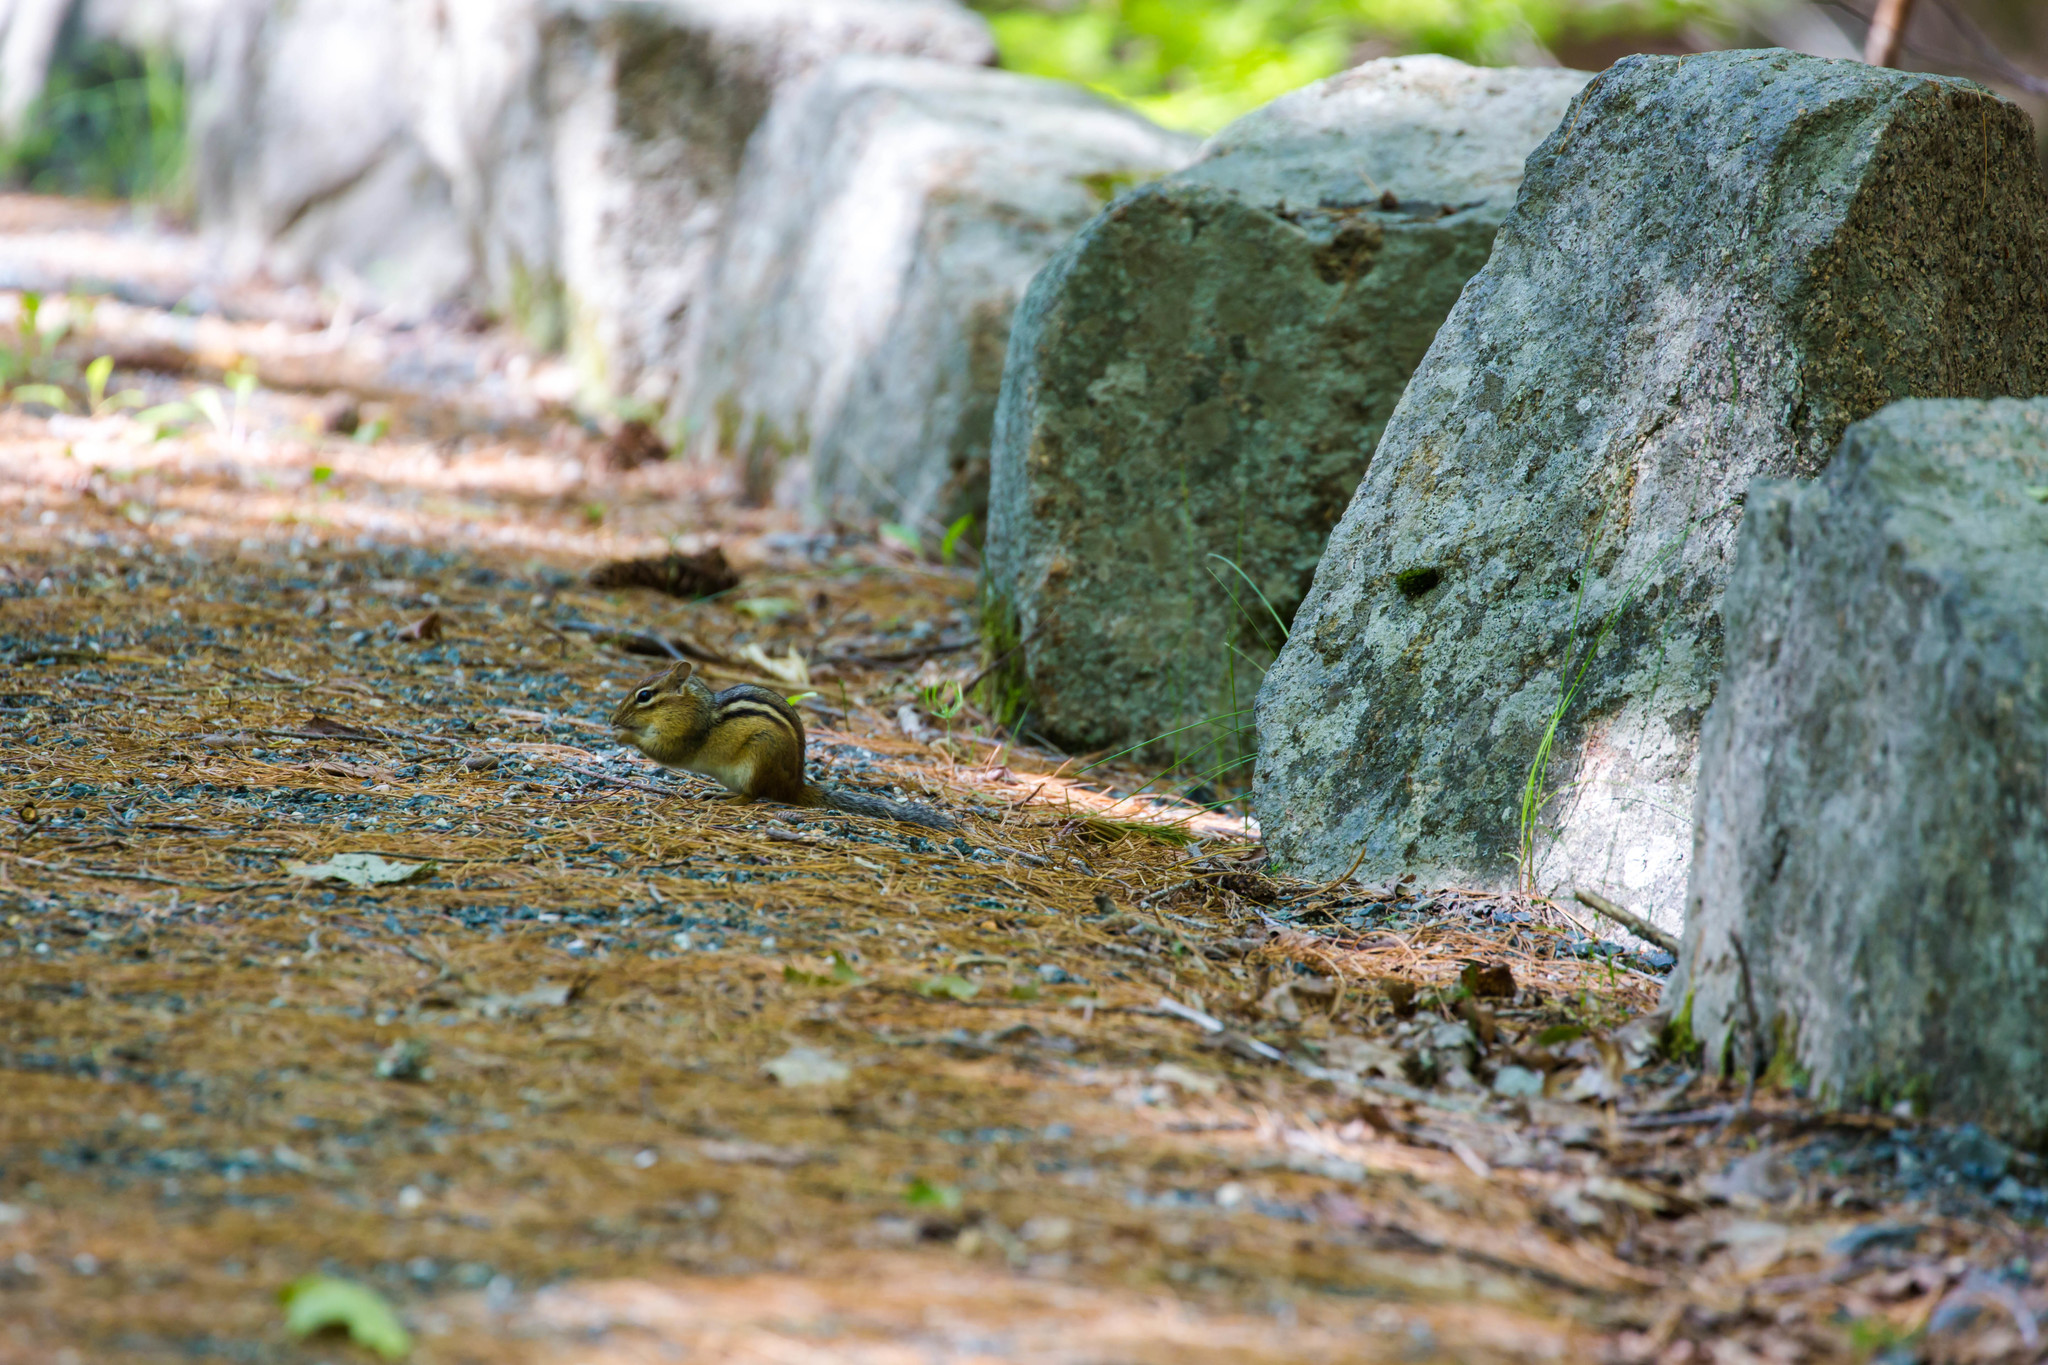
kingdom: Animalia
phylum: Chordata
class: Mammalia
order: Rodentia
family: Sciuridae
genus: Tamias
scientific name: Tamias striatus
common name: Eastern chipmunk
